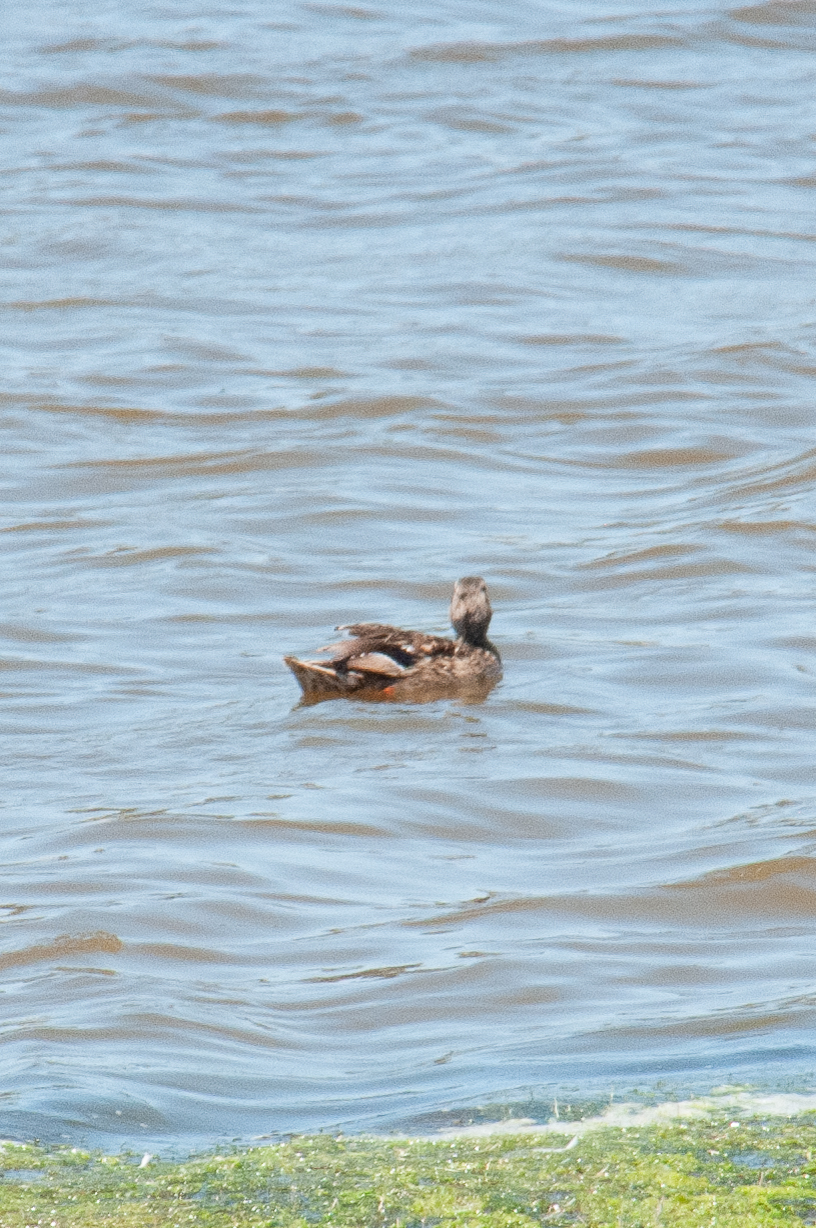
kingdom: Animalia
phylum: Chordata
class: Aves
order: Anseriformes
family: Anatidae
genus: Anas
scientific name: Anas platyrhynchos
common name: Mallard
